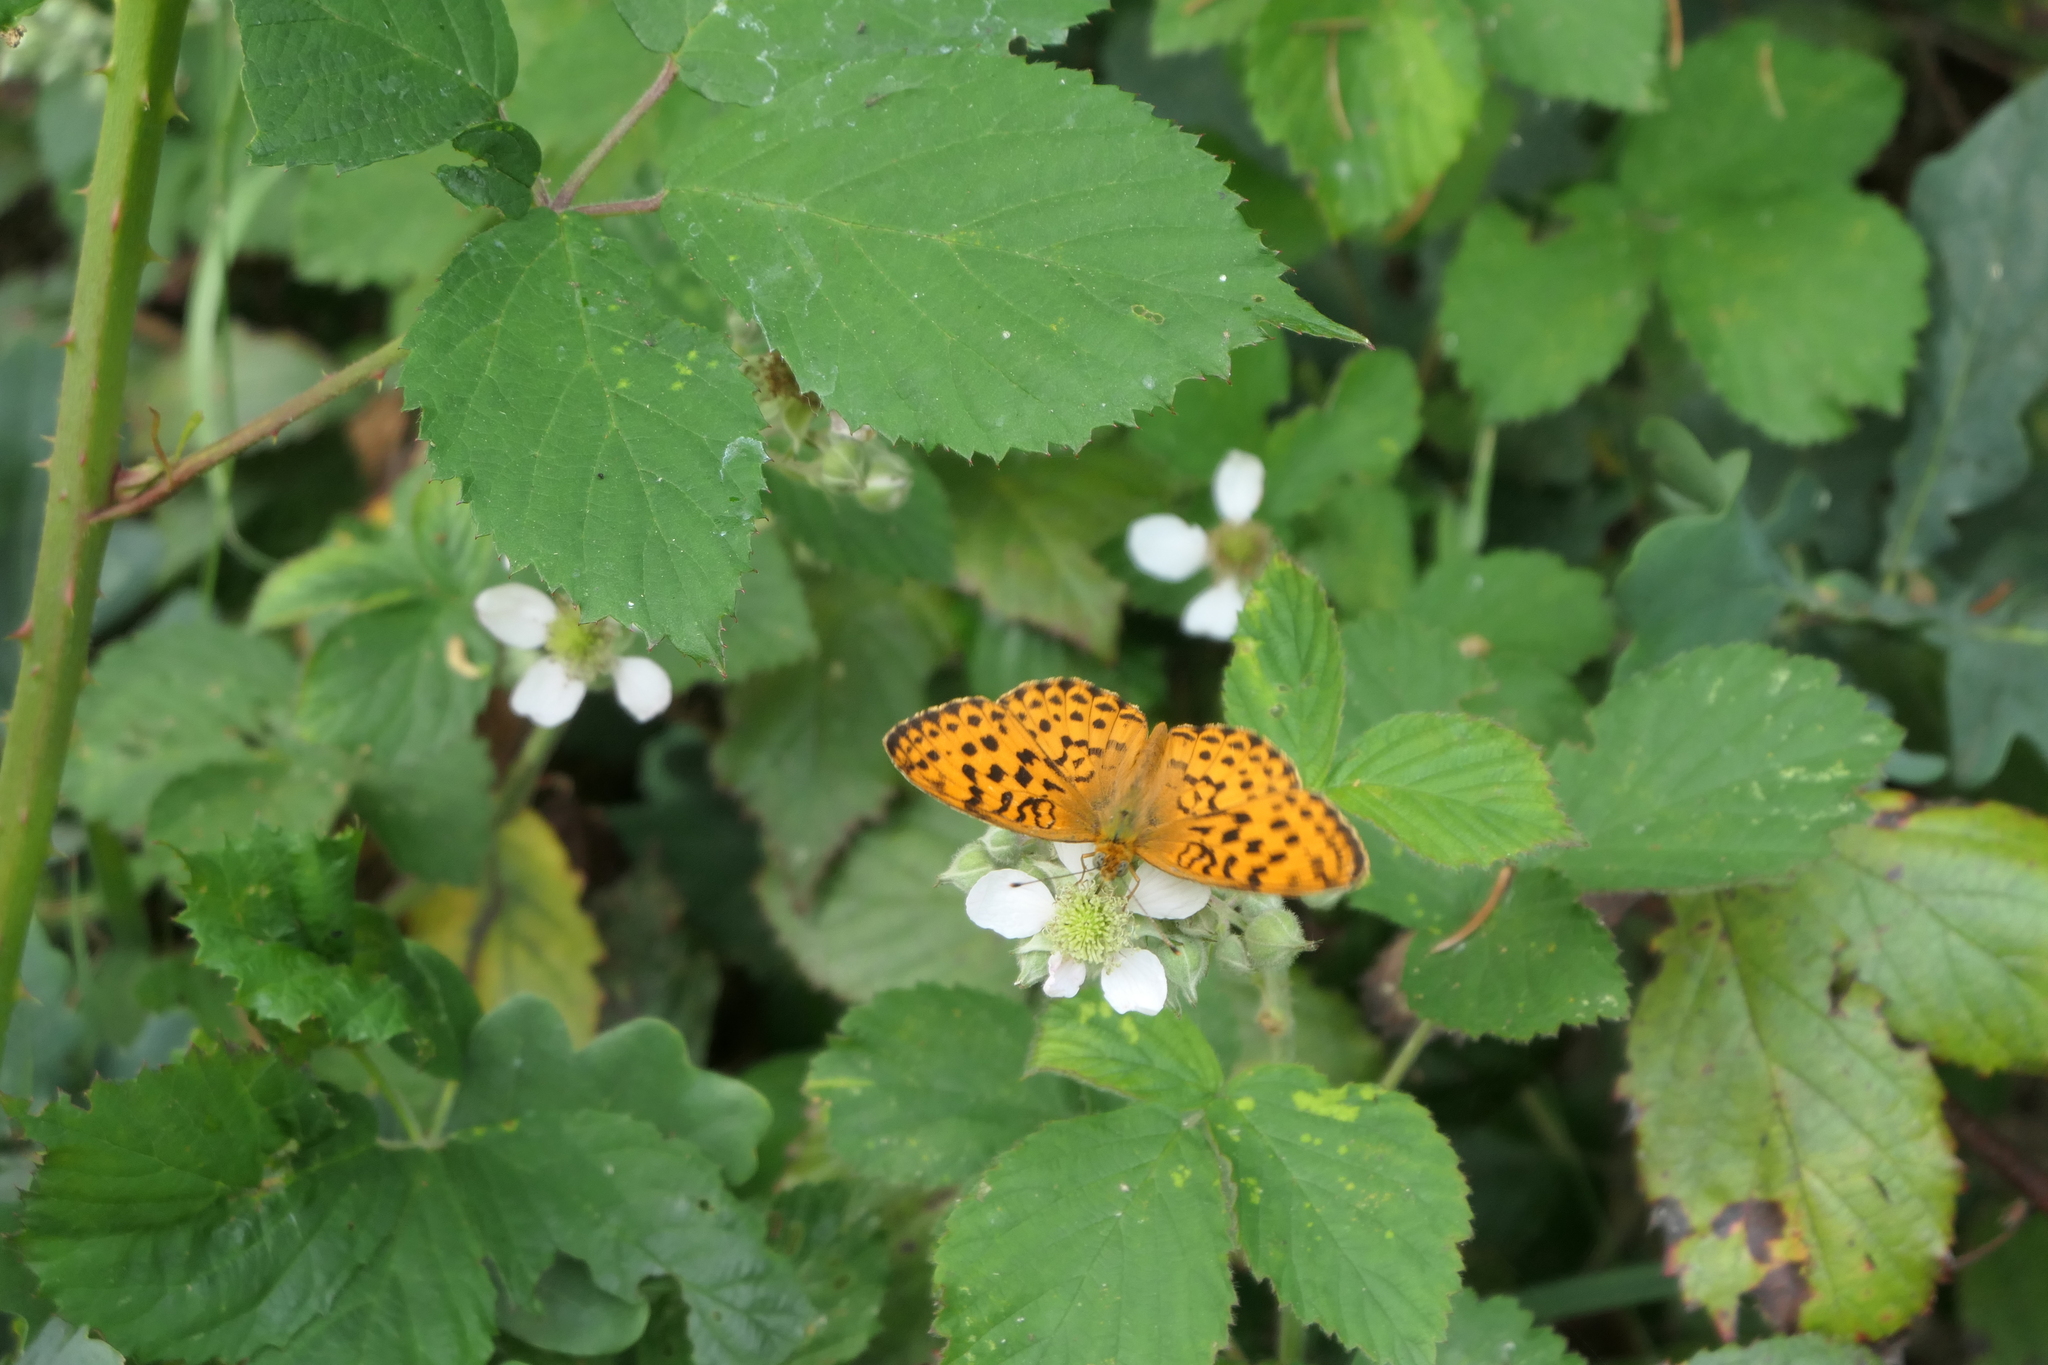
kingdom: Animalia
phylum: Arthropoda
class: Insecta
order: Lepidoptera
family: Nymphalidae
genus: Brenthis
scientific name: Brenthis daphne
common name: Marbled fritillary
